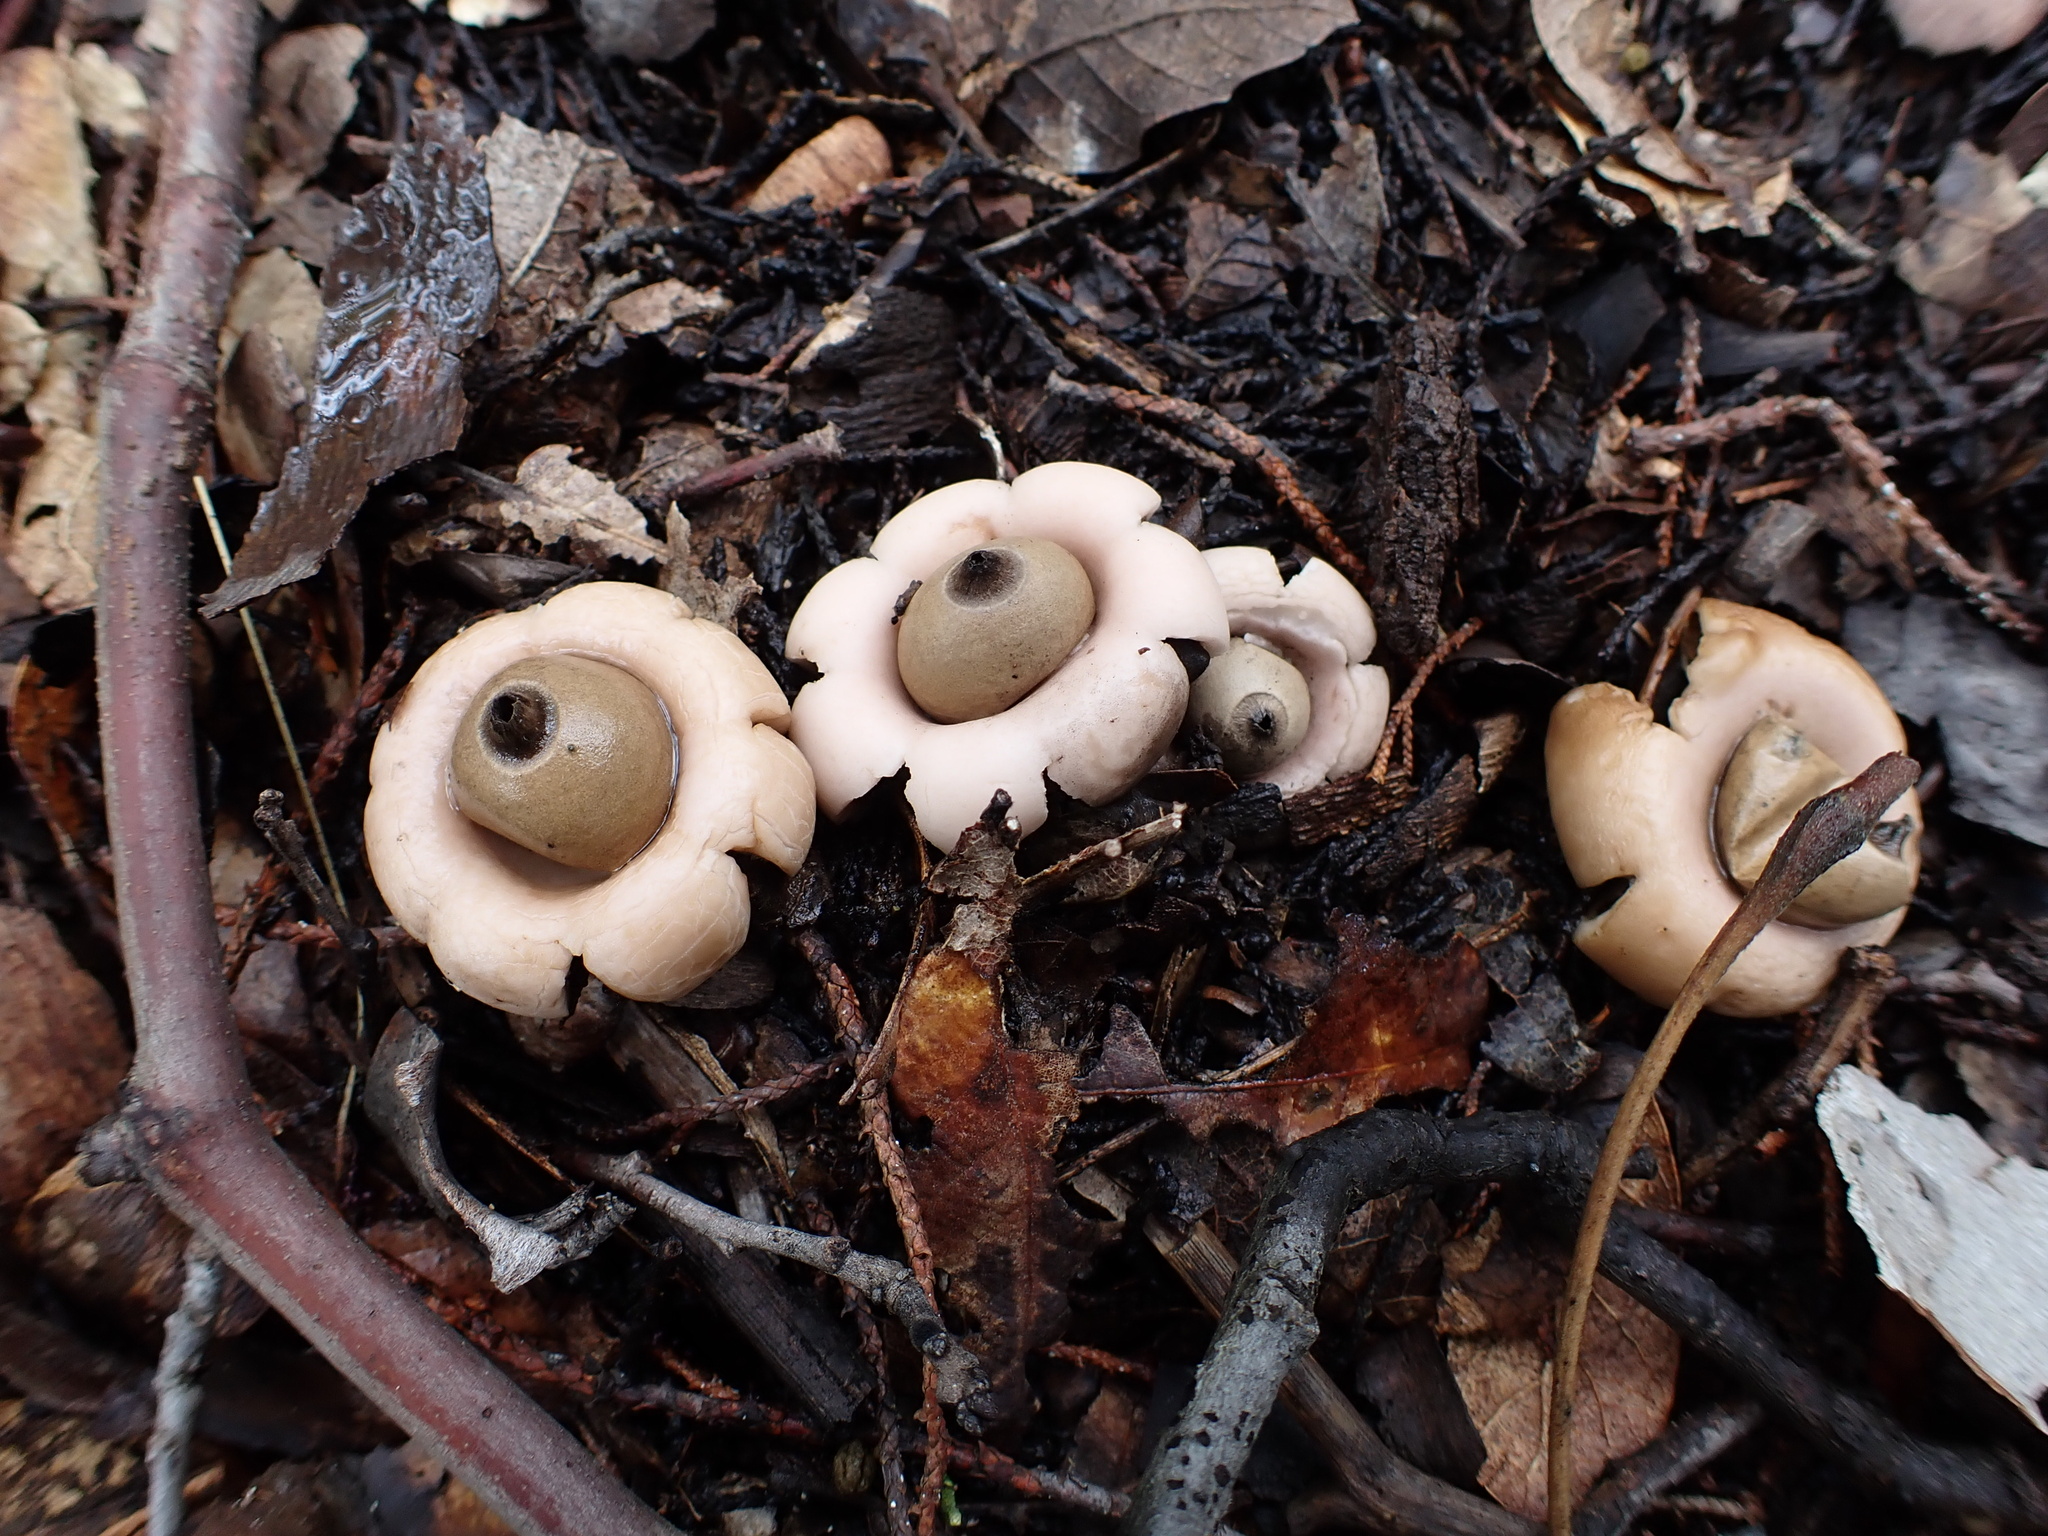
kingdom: Fungi
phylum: Basidiomycota
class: Agaricomycetes
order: Geastrales
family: Geastraceae
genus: Geastrum
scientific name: Geastrum saccatum
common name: Rounded earthstar
